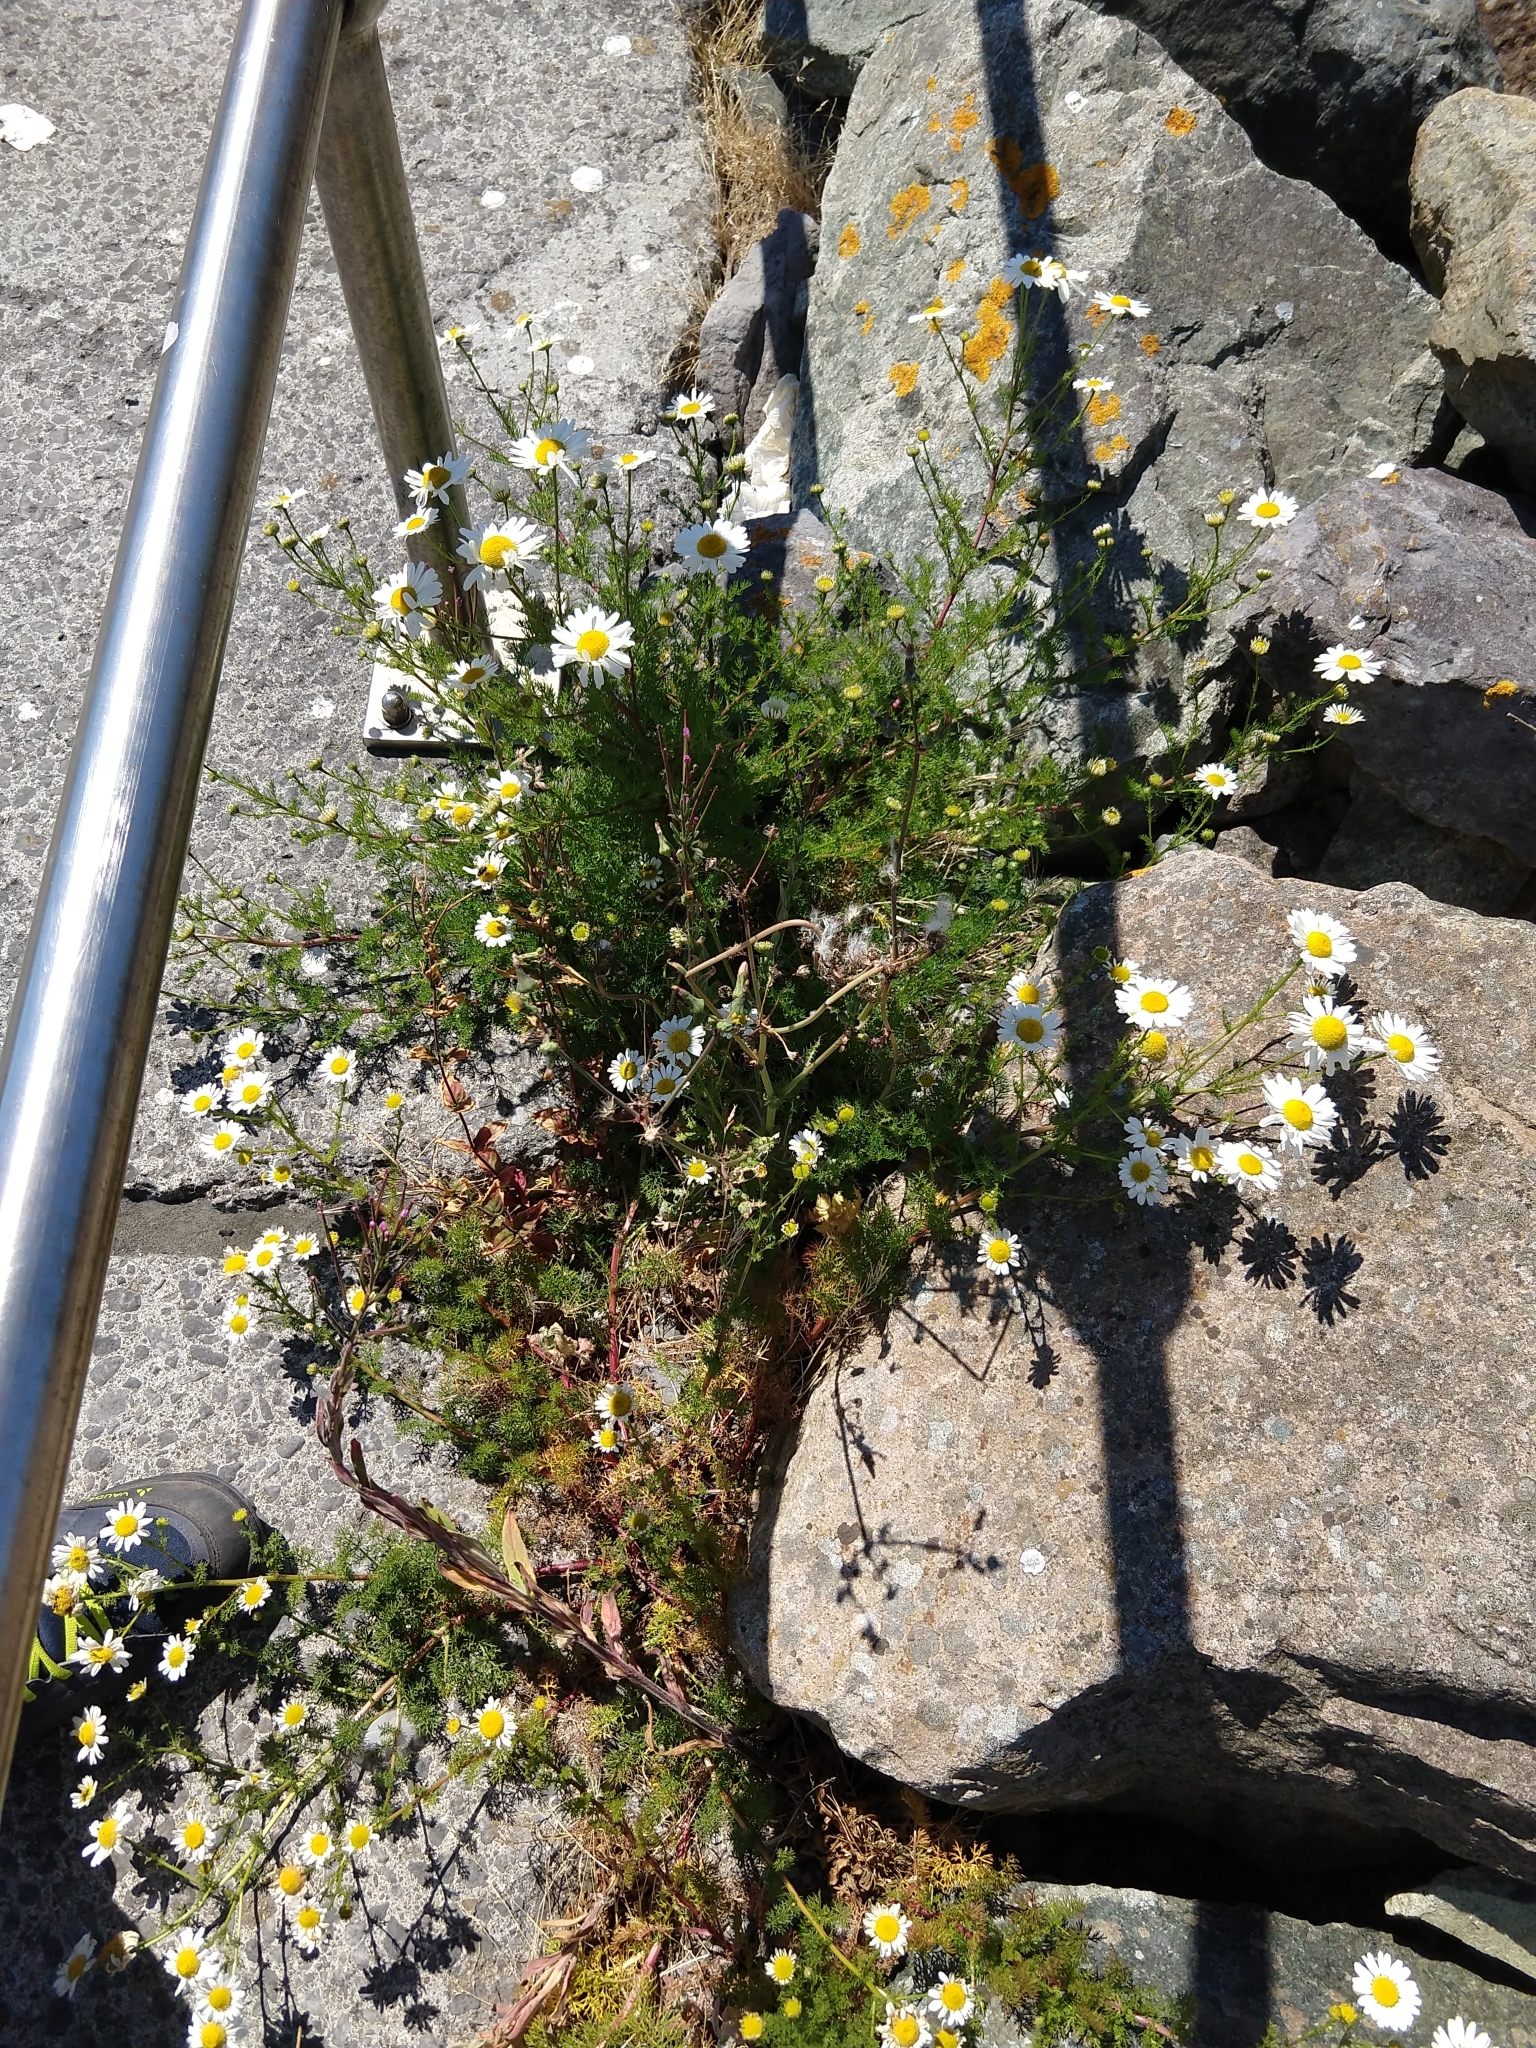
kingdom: Plantae
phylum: Tracheophyta
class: Magnoliopsida
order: Asterales
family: Asteraceae
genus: Tripleurospermum
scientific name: Tripleurospermum maritimum
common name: Sea mayweed
